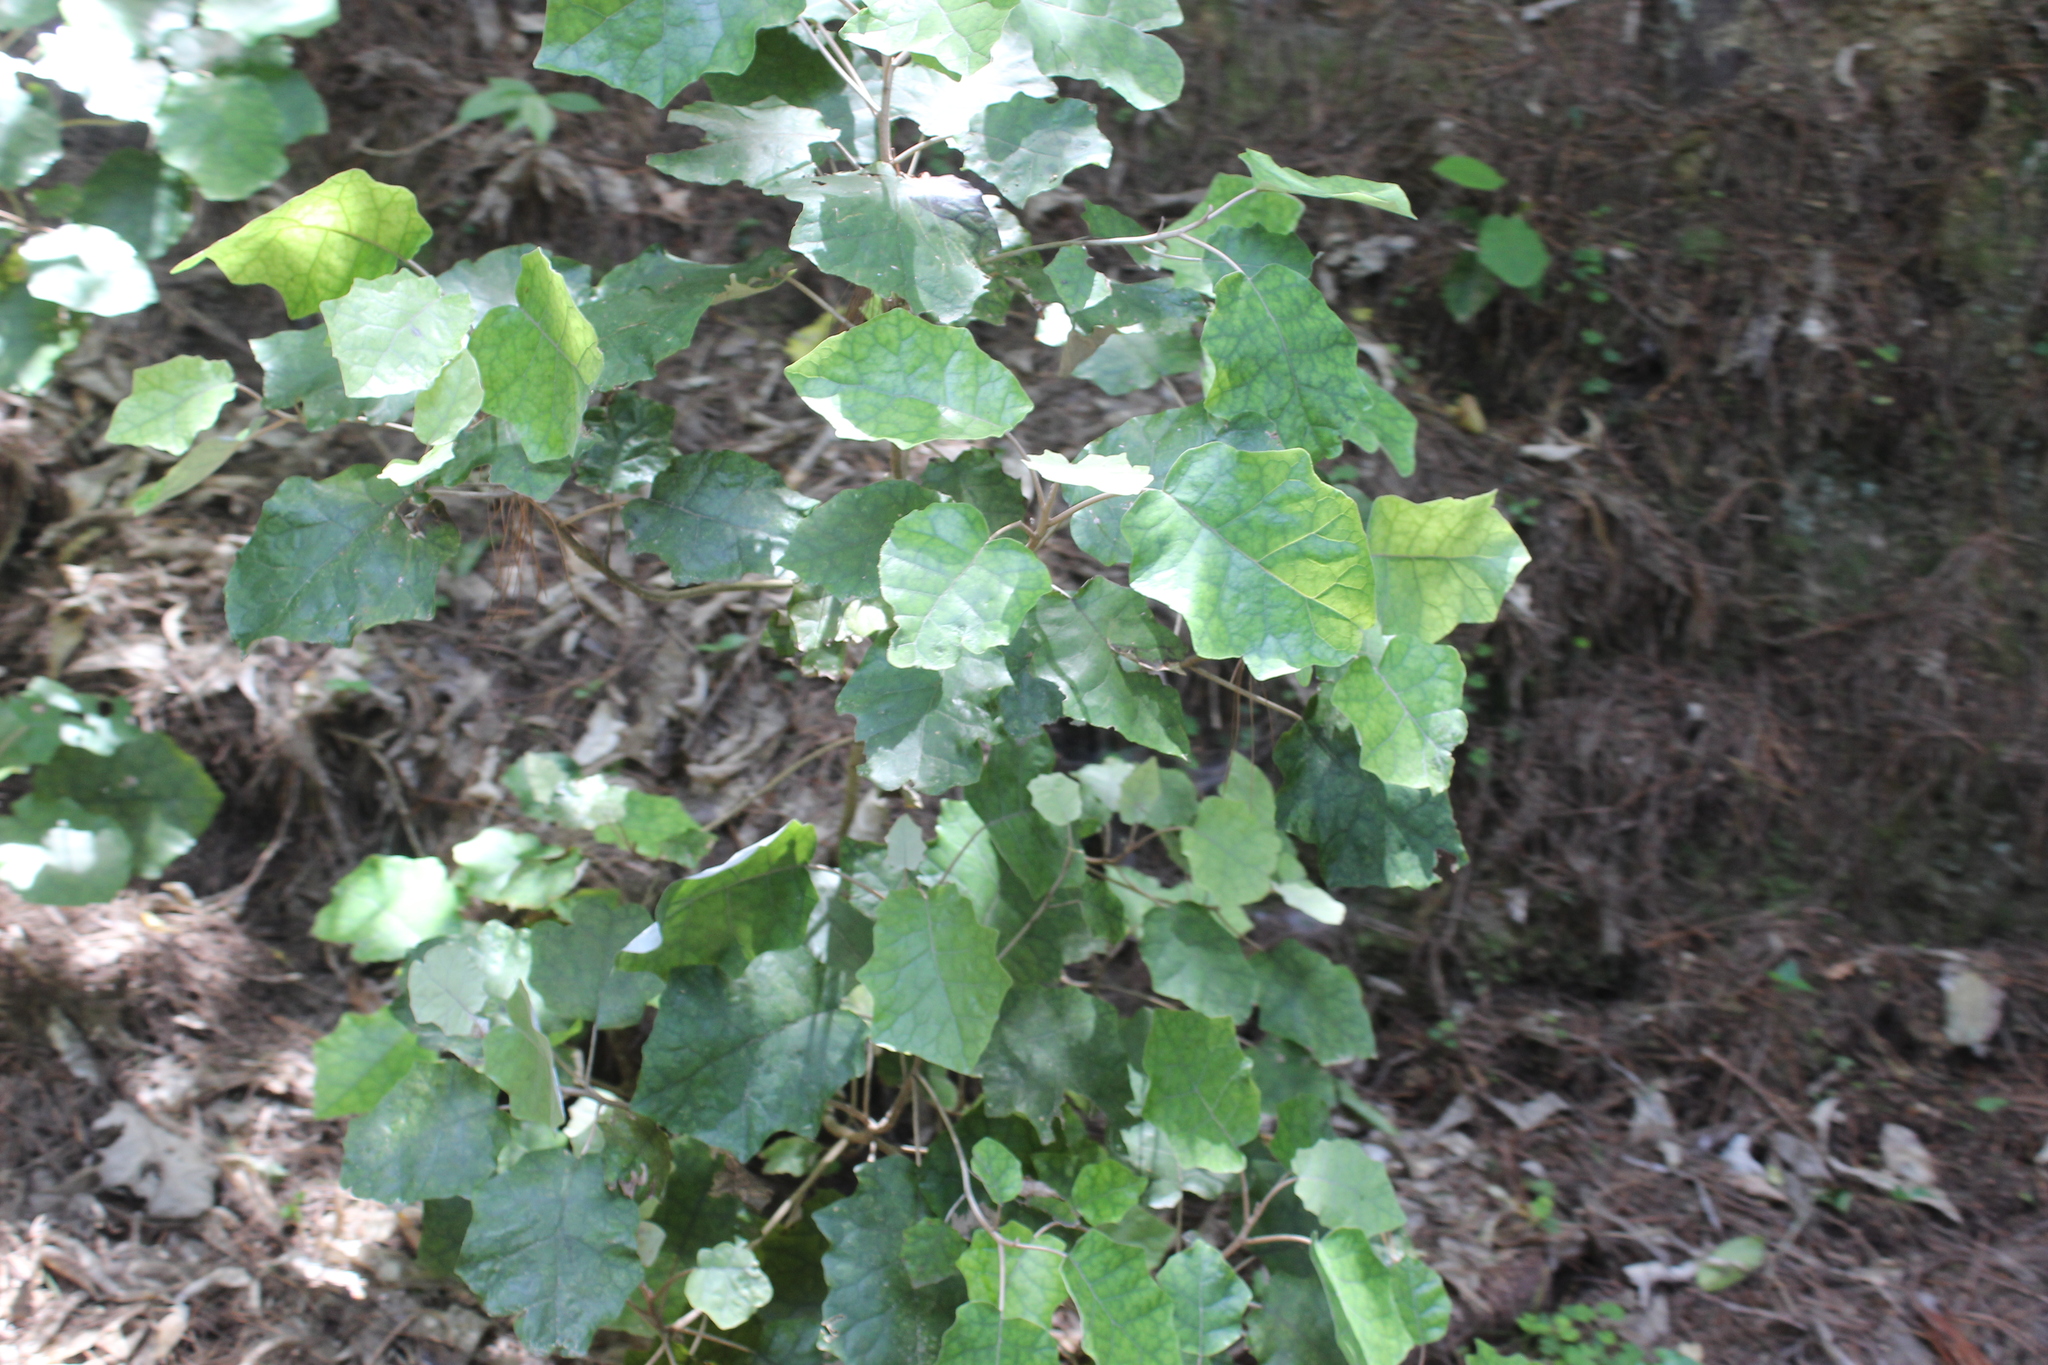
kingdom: Plantae
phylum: Tracheophyta
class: Magnoliopsida
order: Asterales
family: Asteraceae
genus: Brachyglottis
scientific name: Brachyglottis repanda
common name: Hedge ragwort
